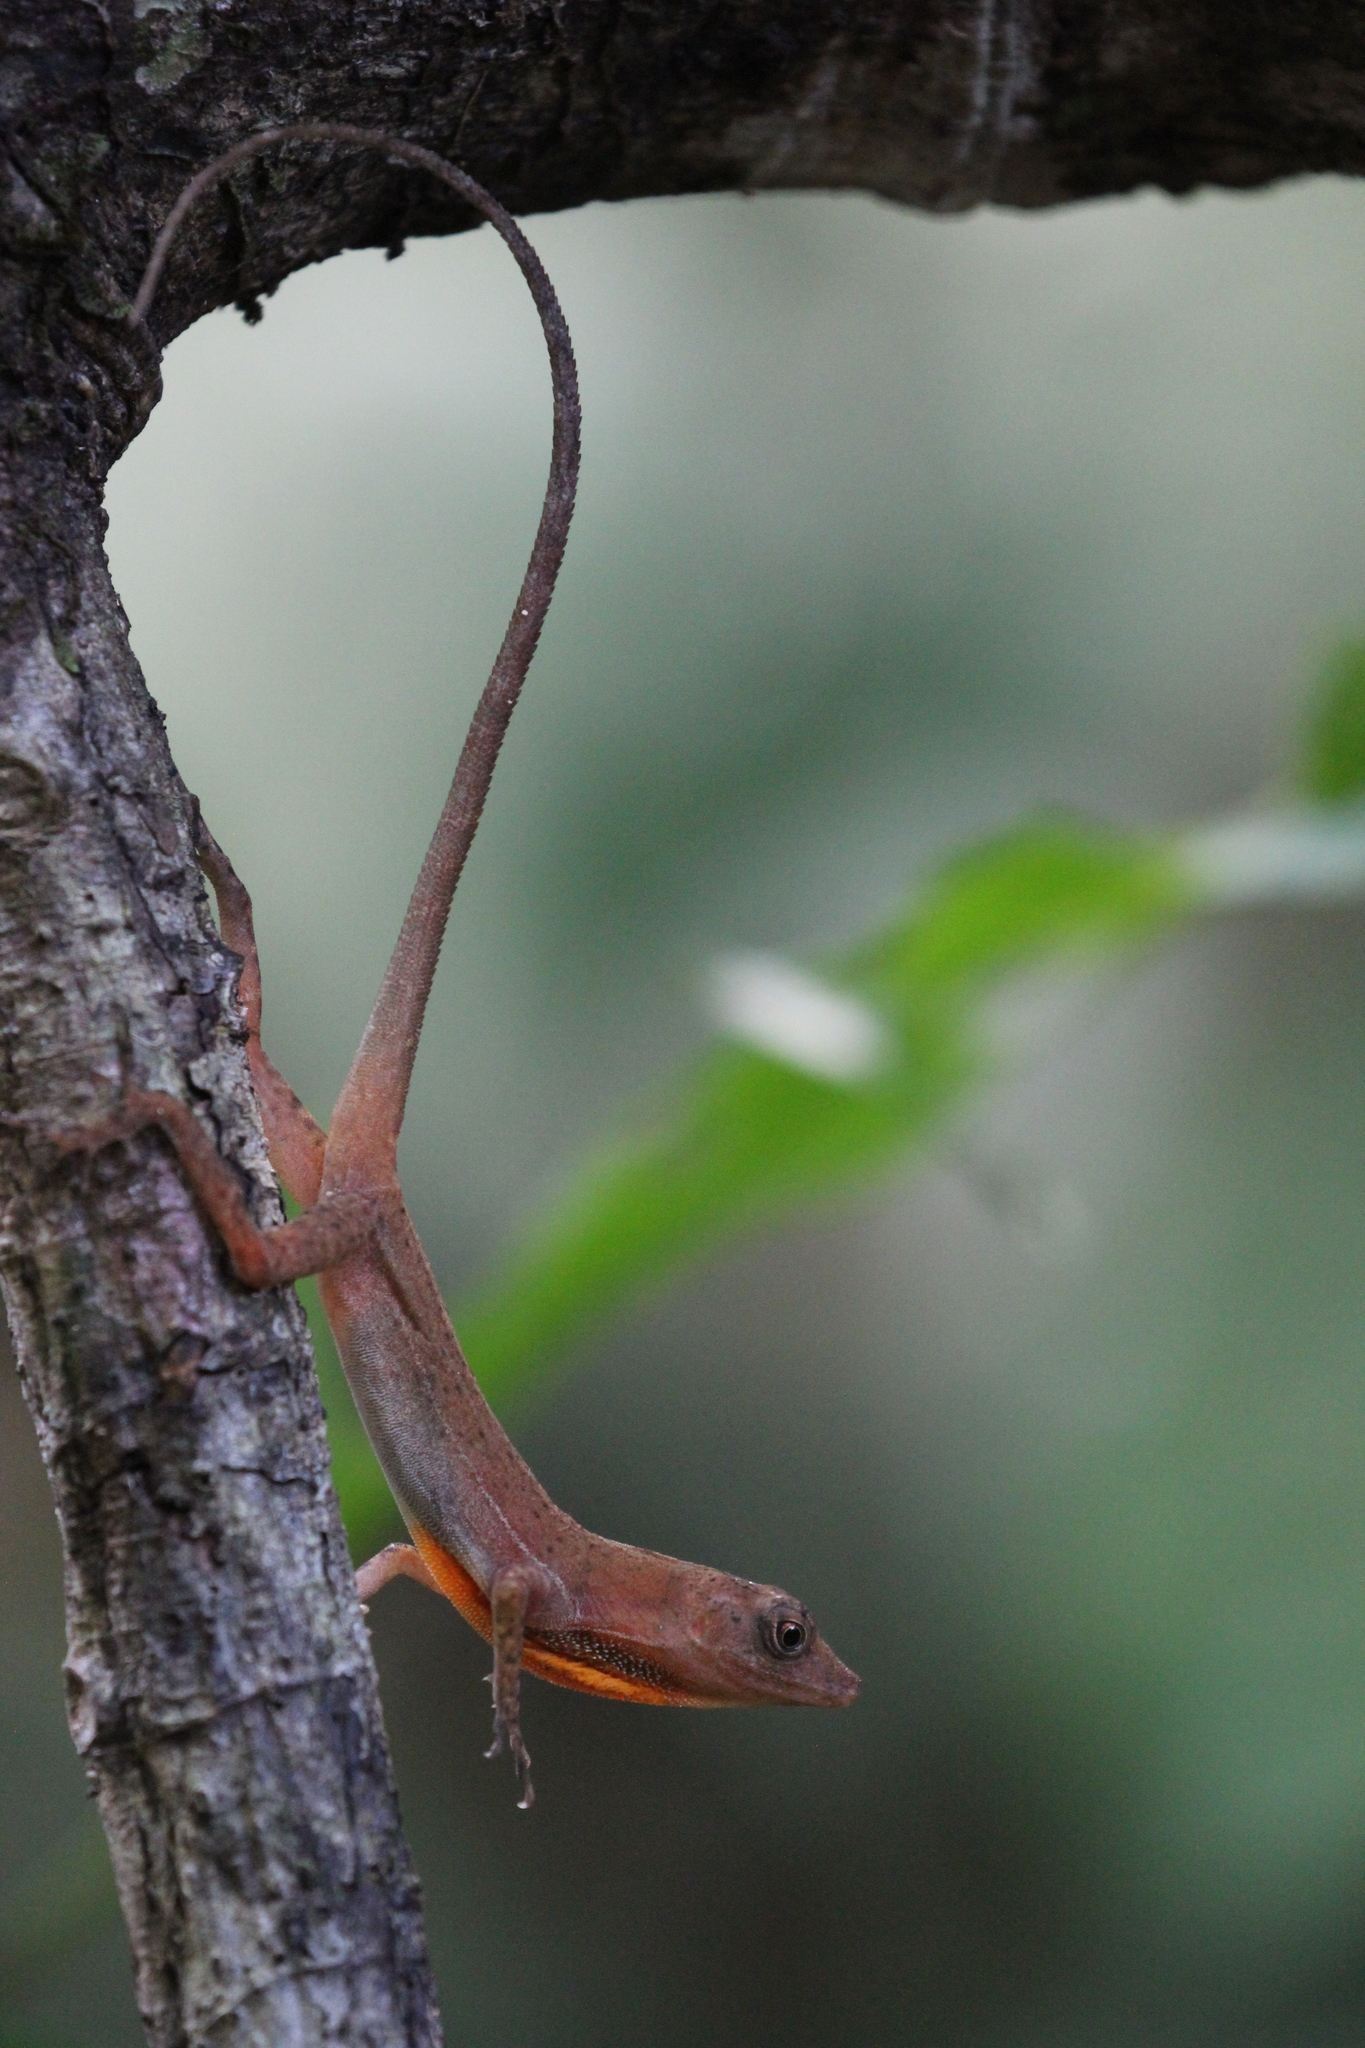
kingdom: Animalia
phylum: Chordata
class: Squamata
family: Dactyloidae
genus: Anolis
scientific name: Anolis osa
